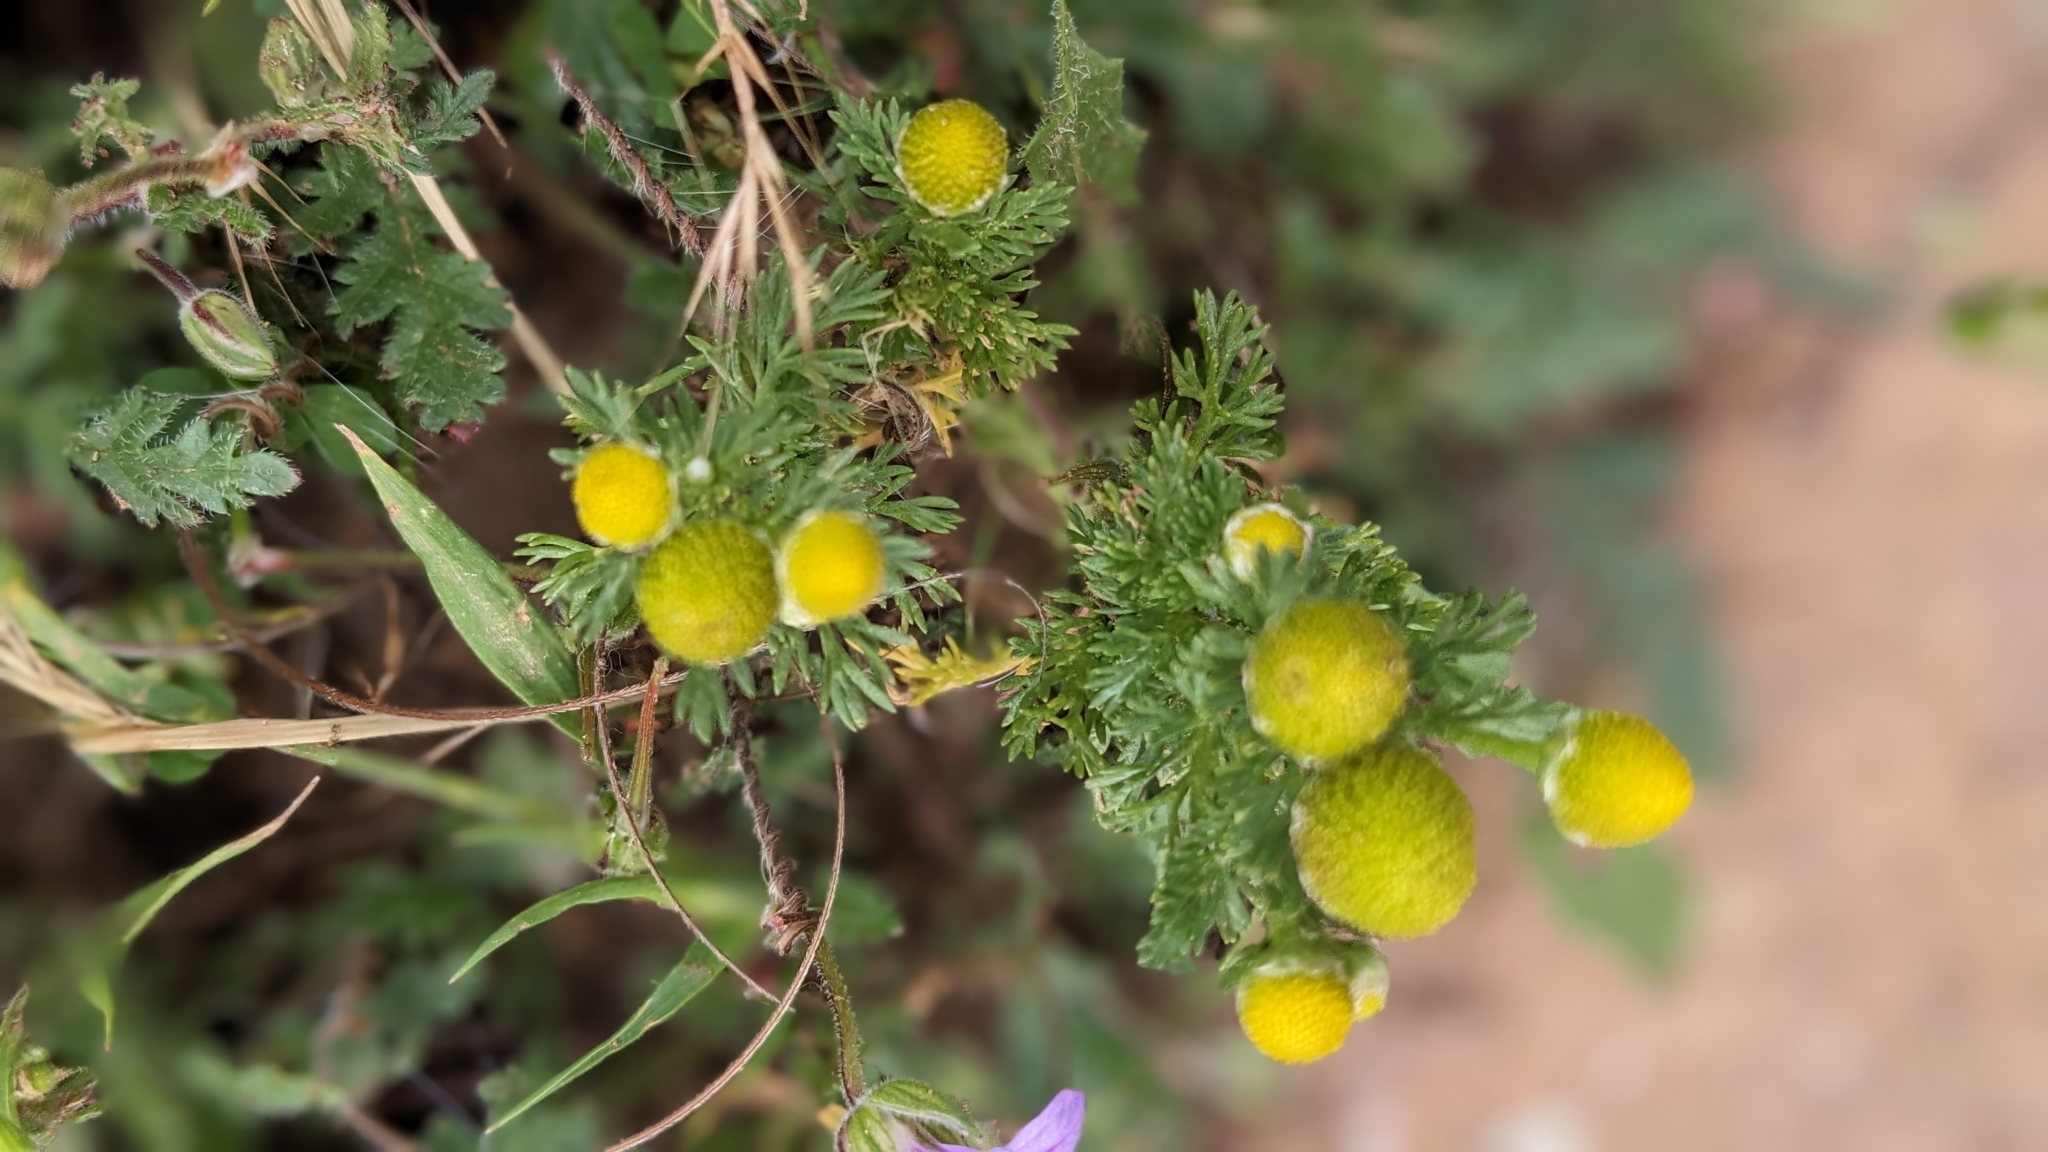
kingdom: Plantae
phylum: Tracheophyta
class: Magnoliopsida
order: Asterales
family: Asteraceae
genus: Matricaria
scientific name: Matricaria discoidea
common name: Disc mayweed
